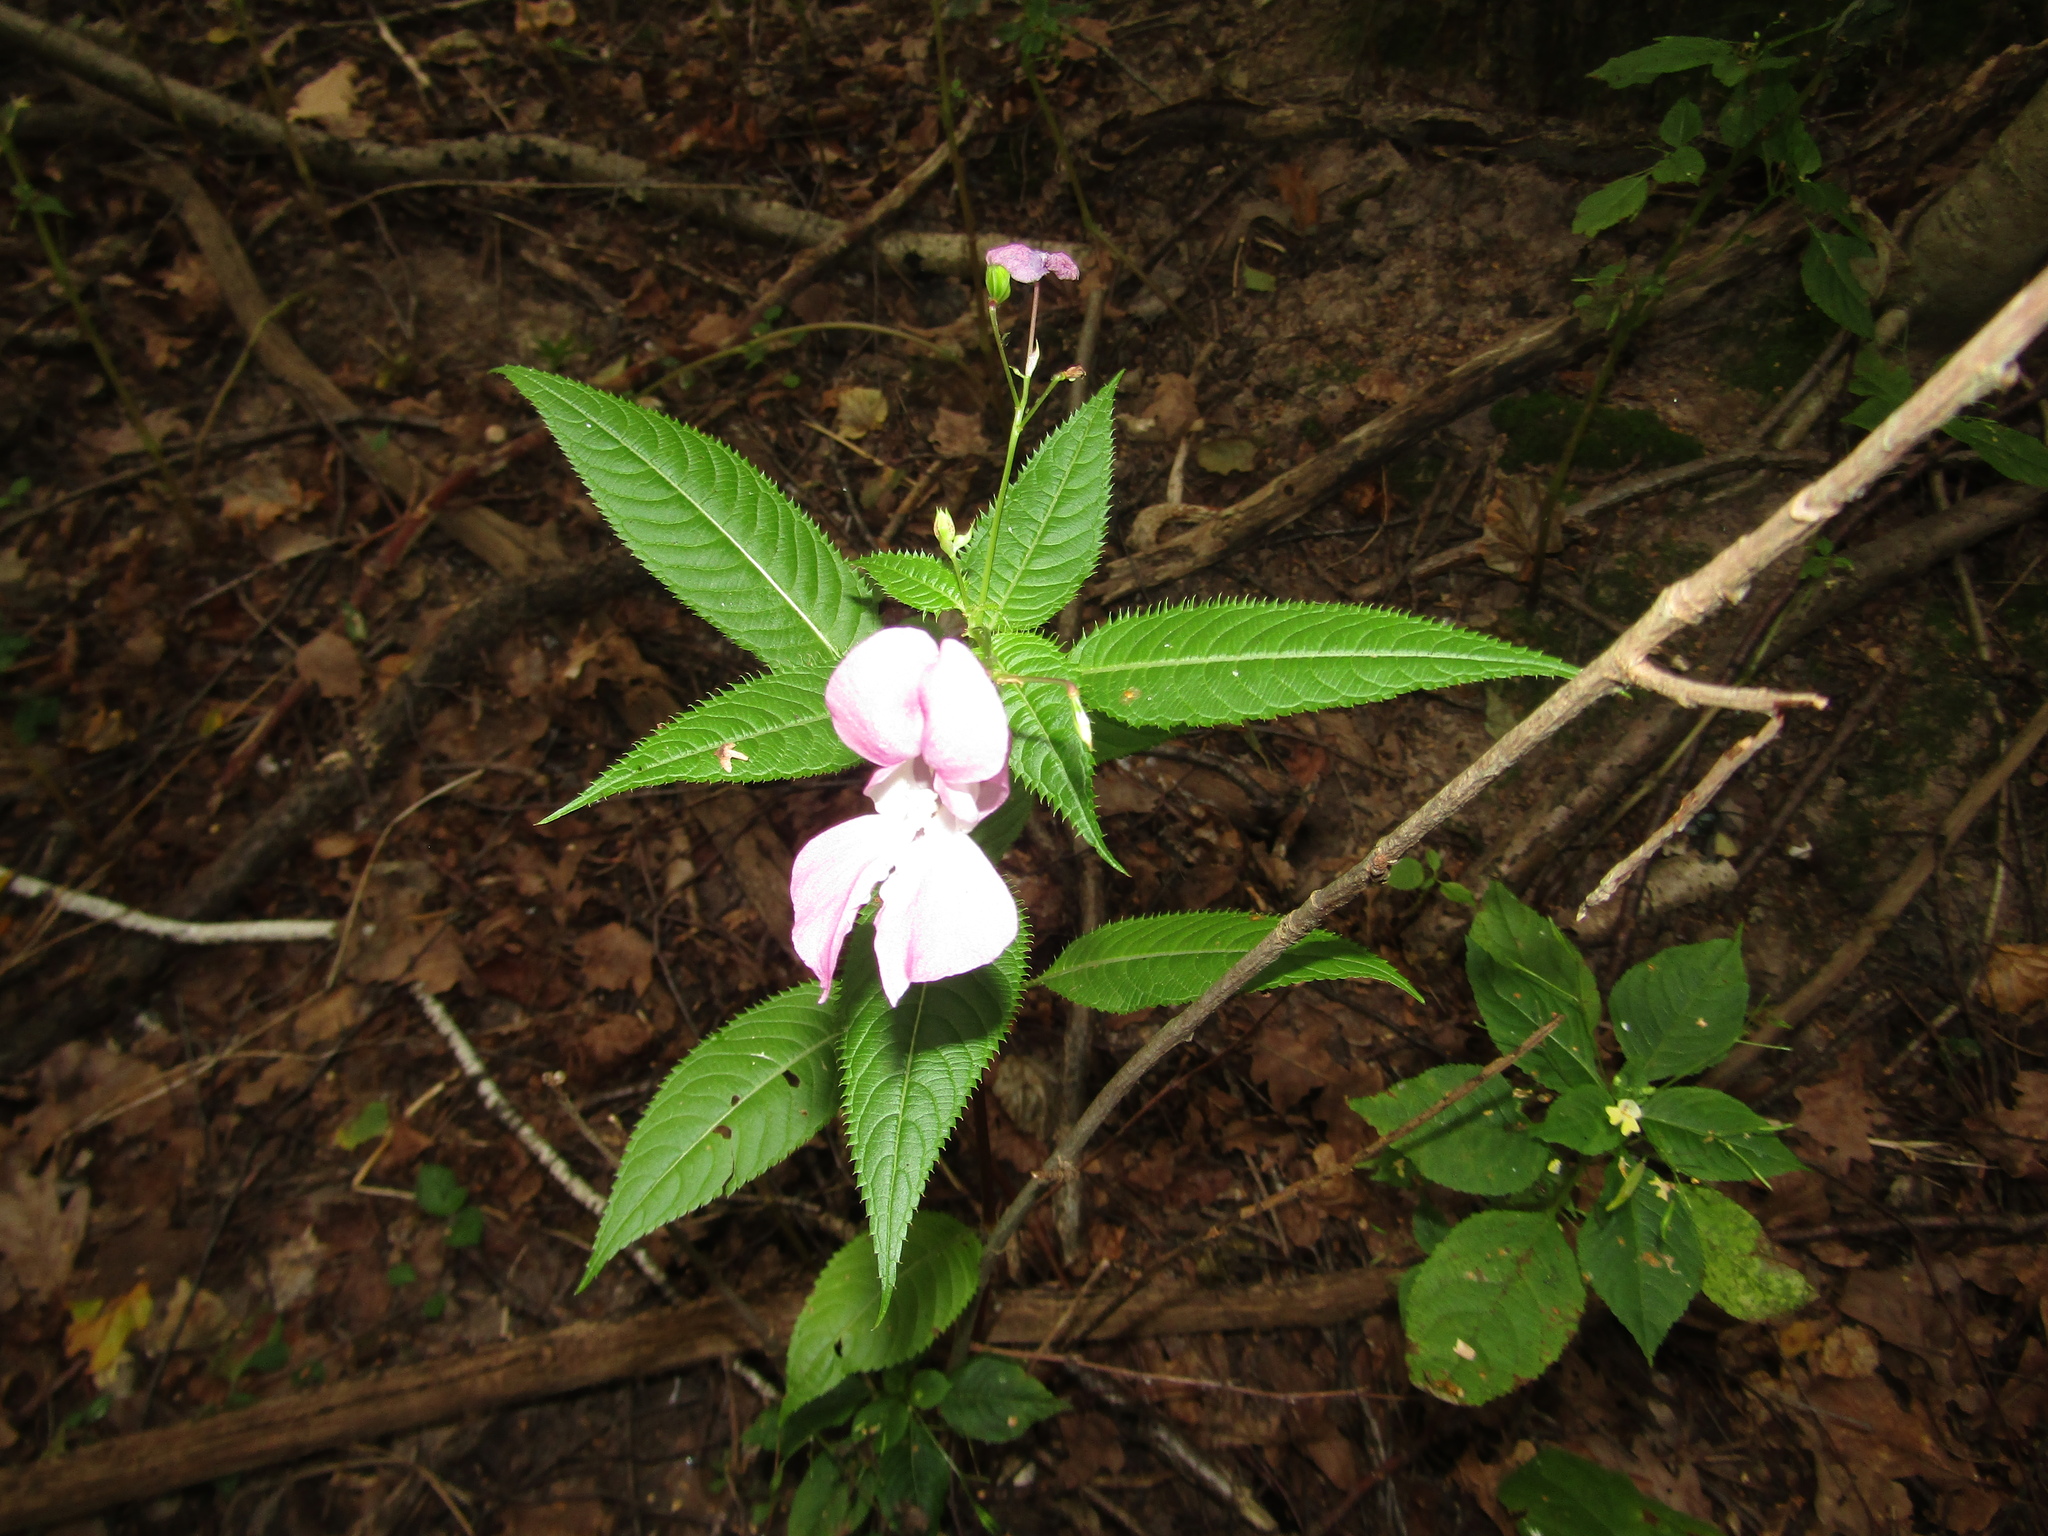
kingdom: Plantae
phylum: Tracheophyta
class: Magnoliopsida
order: Ericales
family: Balsaminaceae
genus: Impatiens
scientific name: Impatiens glandulifera
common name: Himalayan balsam
